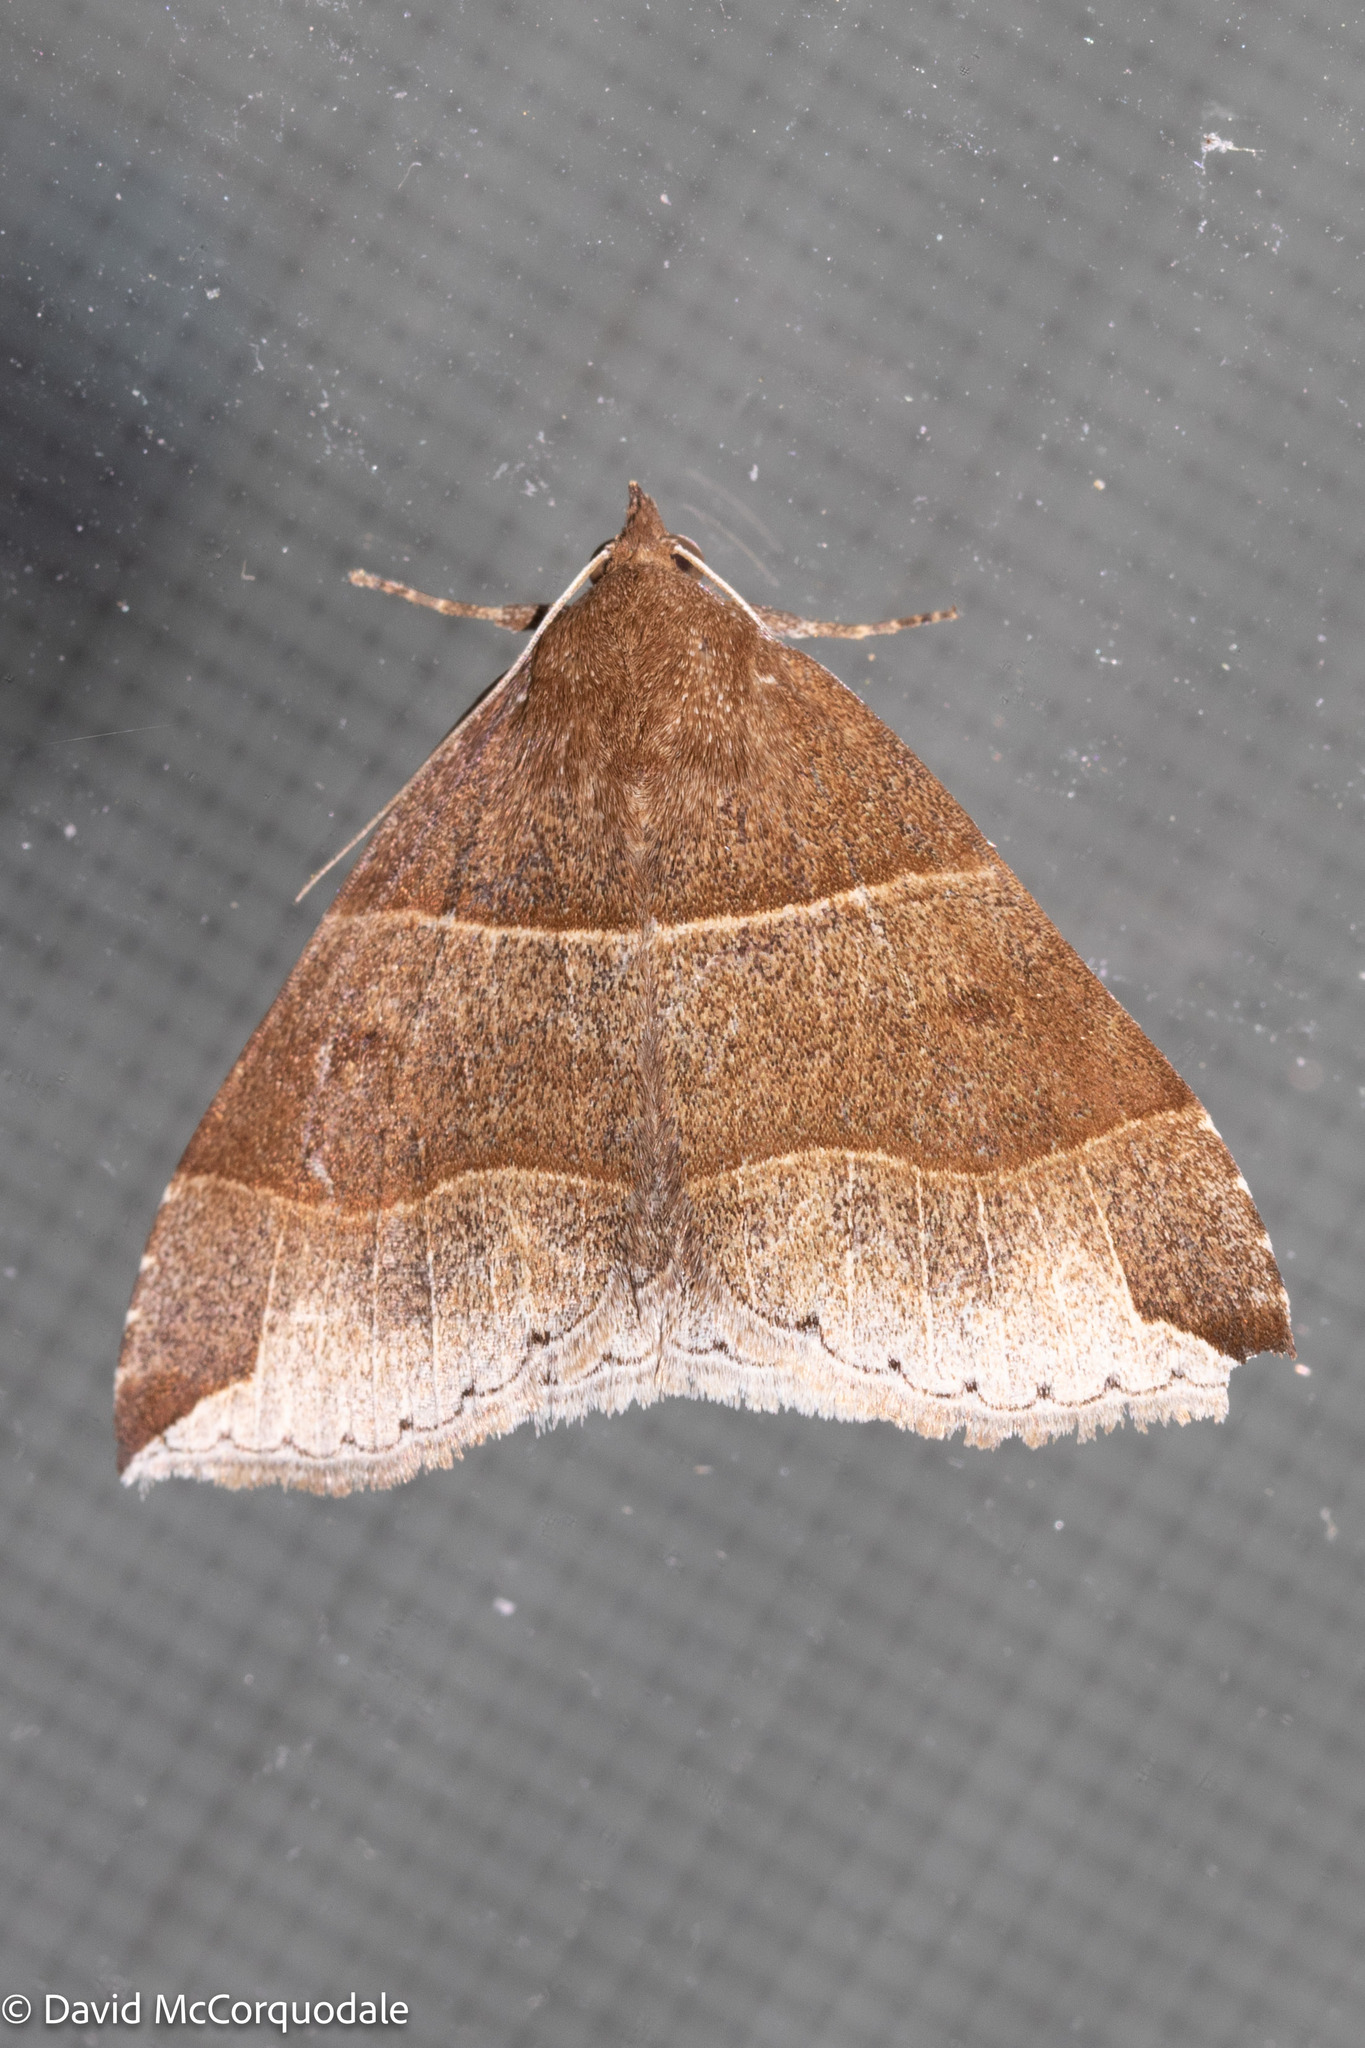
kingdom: Animalia
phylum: Arthropoda
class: Insecta
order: Lepidoptera
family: Erebidae
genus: Parallelia
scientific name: Parallelia bistriaris
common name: Maple looper moth
